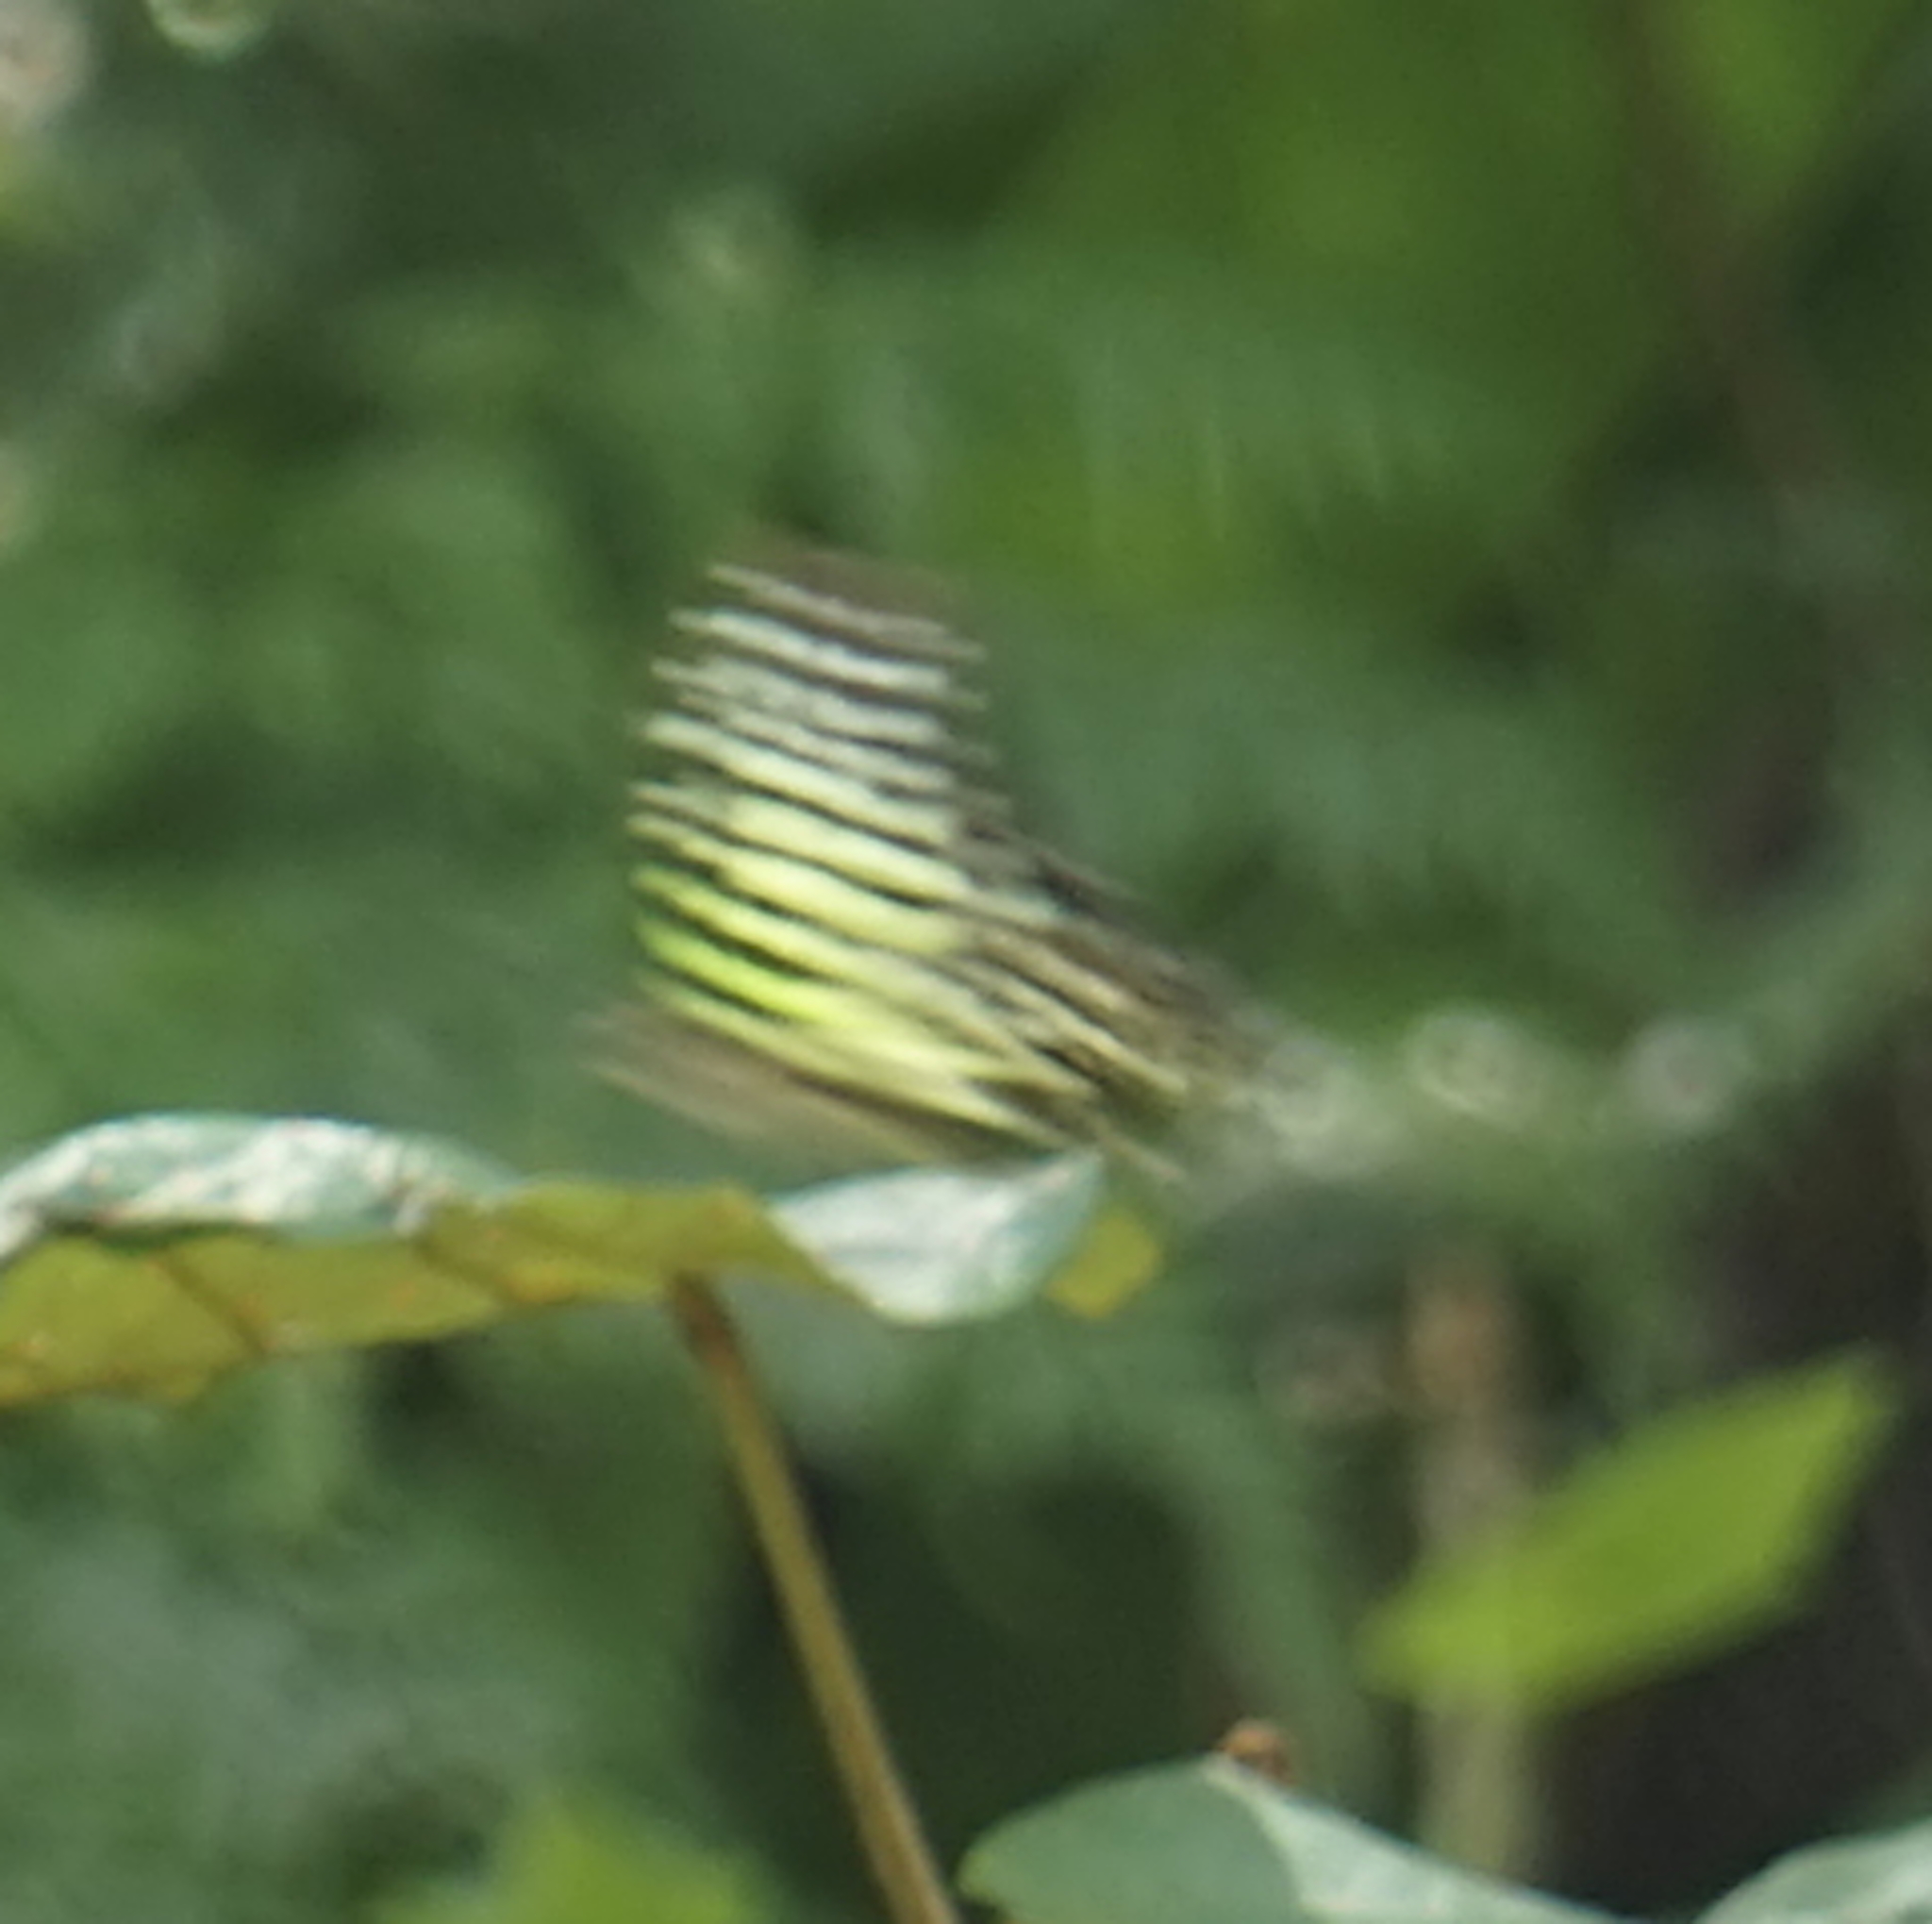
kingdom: Animalia
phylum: Arthropoda
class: Insecta
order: Lepidoptera
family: Papilionidae
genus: Graphium
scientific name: Graphium agamemnon
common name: Tailed jay
